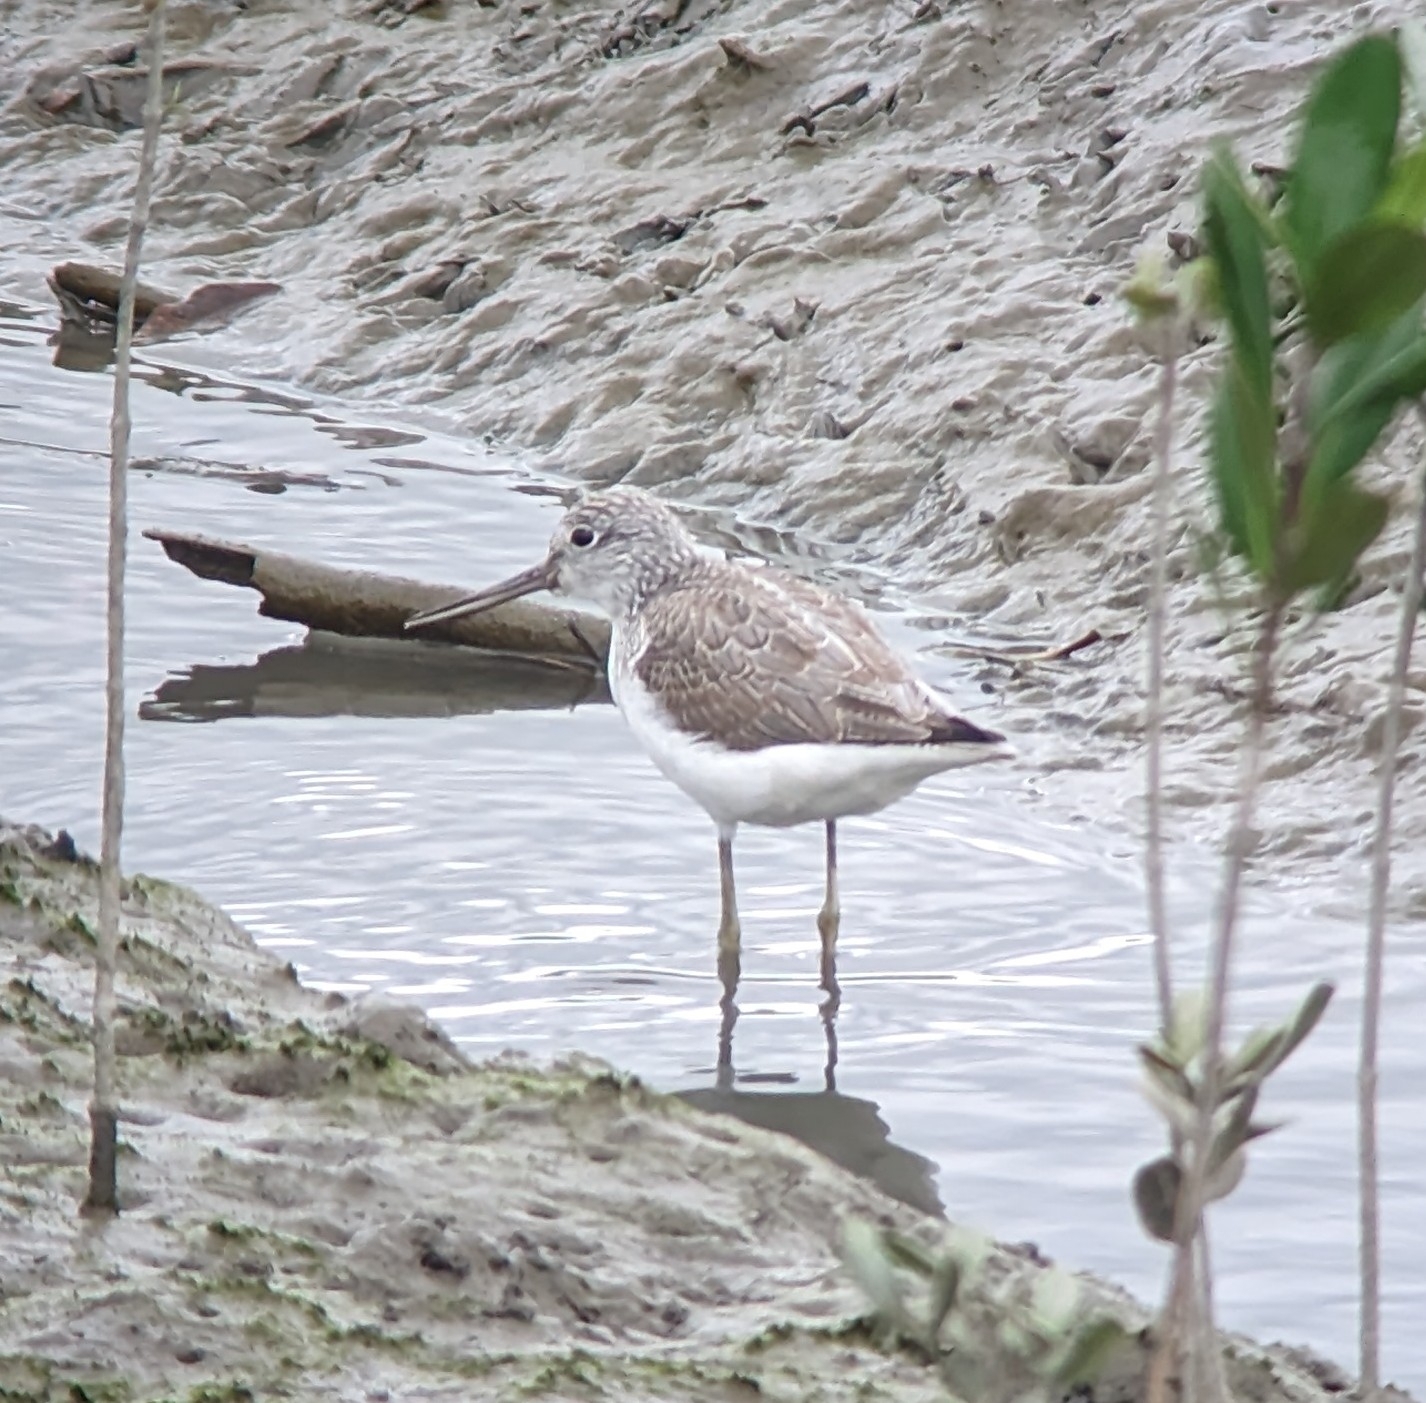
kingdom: Animalia
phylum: Chordata
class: Aves
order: Charadriiformes
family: Scolopacidae
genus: Tringa
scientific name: Tringa nebularia
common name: Common greenshank
